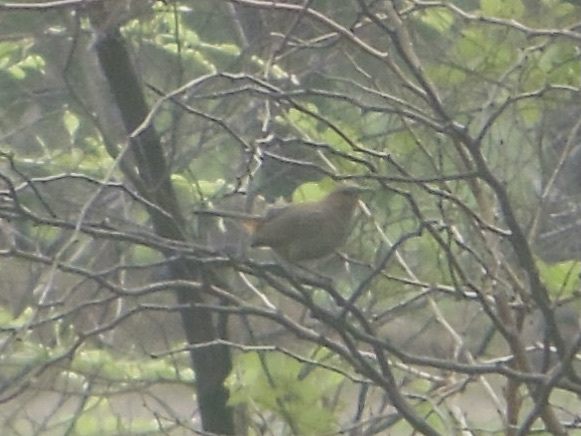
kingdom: Animalia
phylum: Chordata
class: Aves
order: Passeriformes
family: Muscicapidae
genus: Saxicoloides
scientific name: Saxicoloides fulicatus
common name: Indian robin
